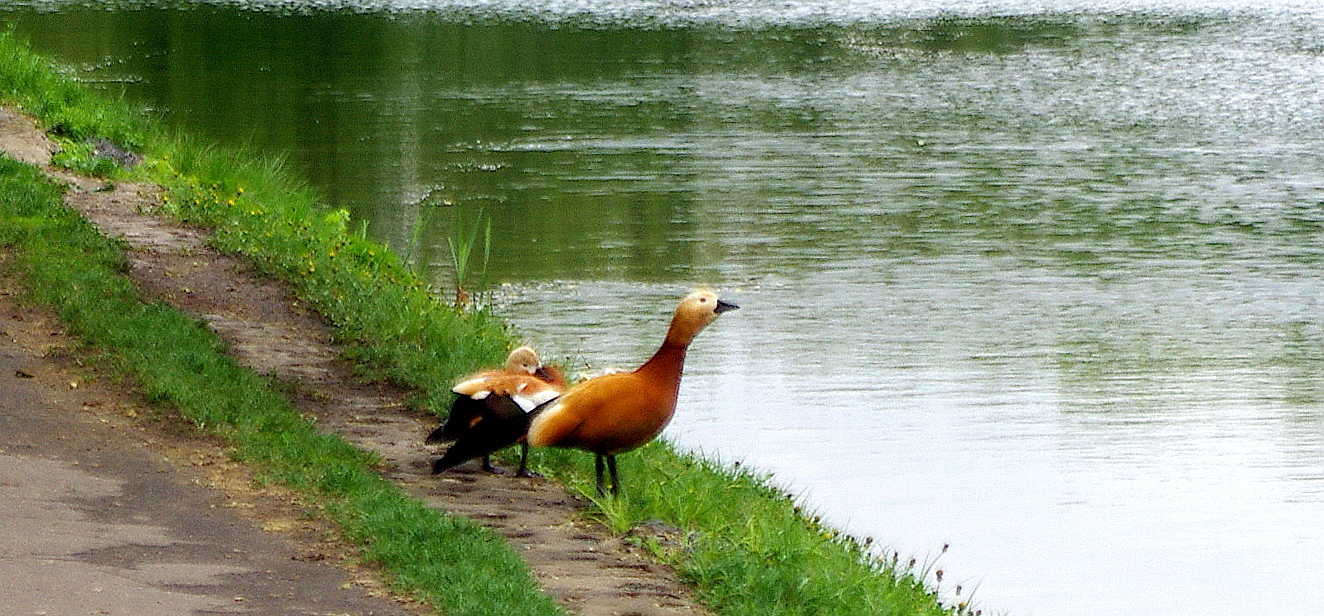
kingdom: Animalia
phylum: Chordata
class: Aves
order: Anseriformes
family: Anatidae
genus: Tadorna
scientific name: Tadorna ferruginea
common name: Ruddy shelduck
